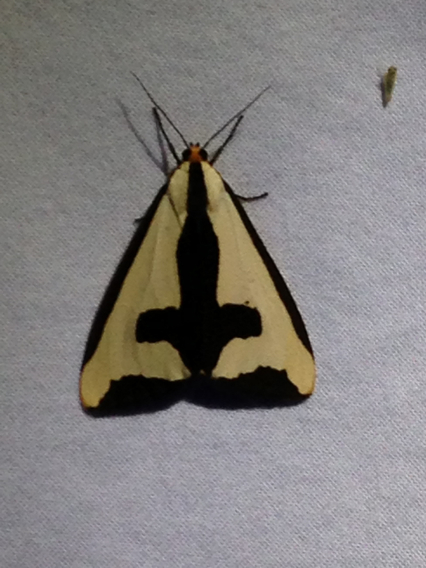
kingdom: Animalia
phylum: Arthropoda
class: Insecta
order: Lepidoptera
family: Erebidae
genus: Haploa
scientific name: Haploa clymene
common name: Clymene moth
